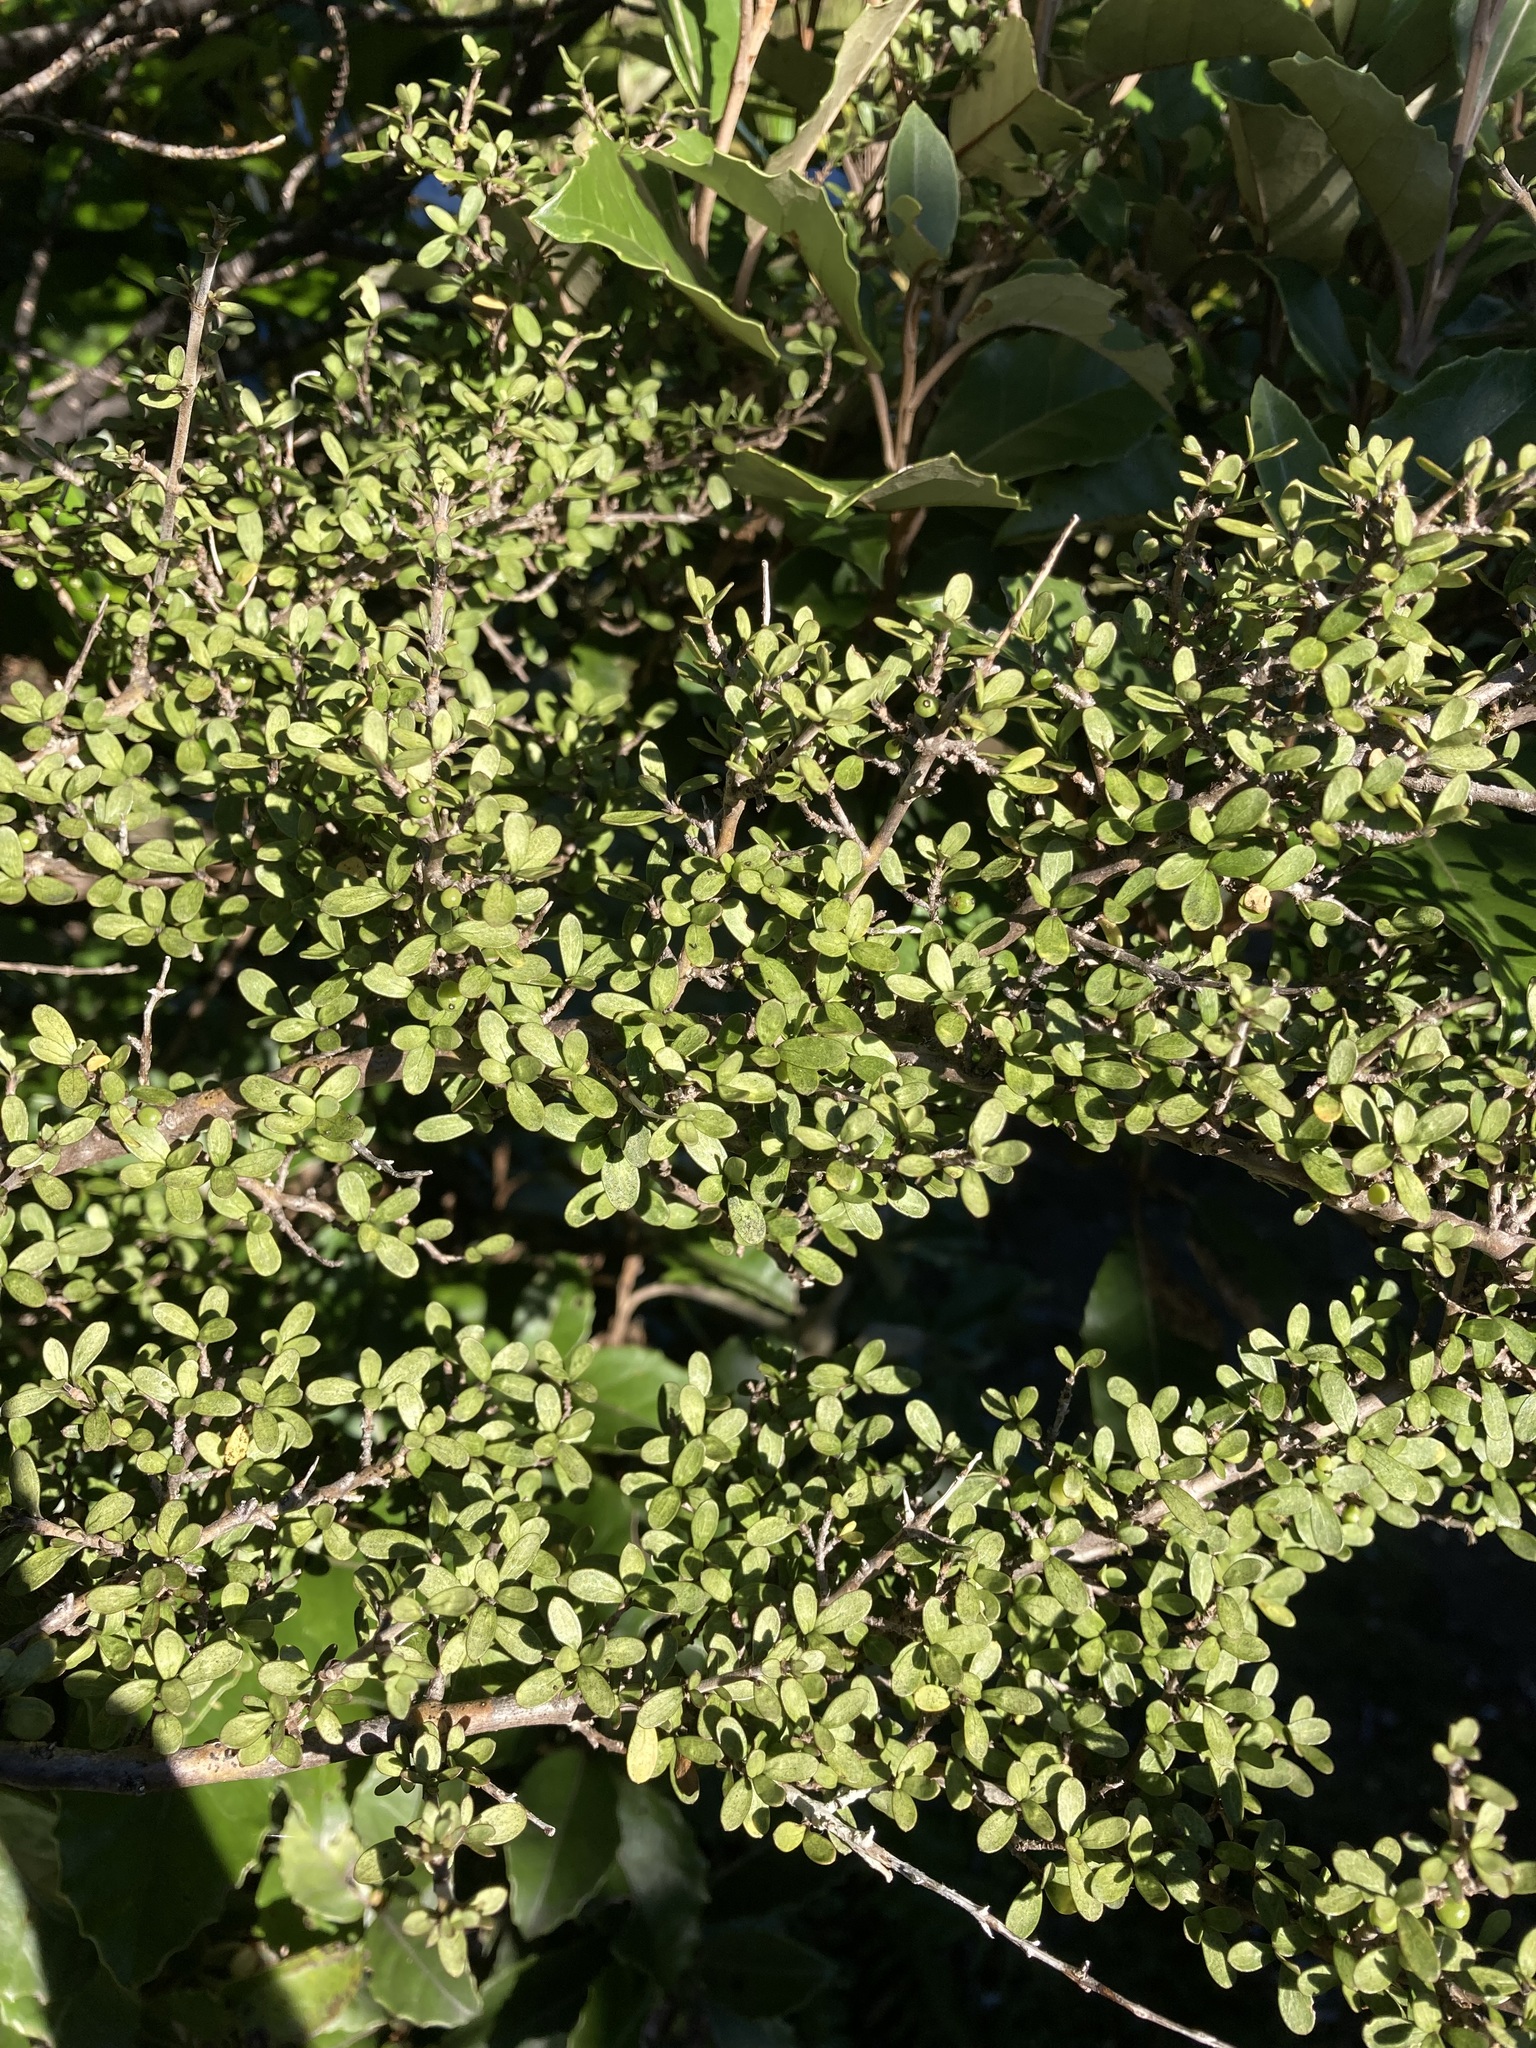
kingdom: Plantae
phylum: Tracheophyta
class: Magnoliopsida
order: Gentianales
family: Rubiaceae
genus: Coprosma
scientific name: Coprosma dumosa
